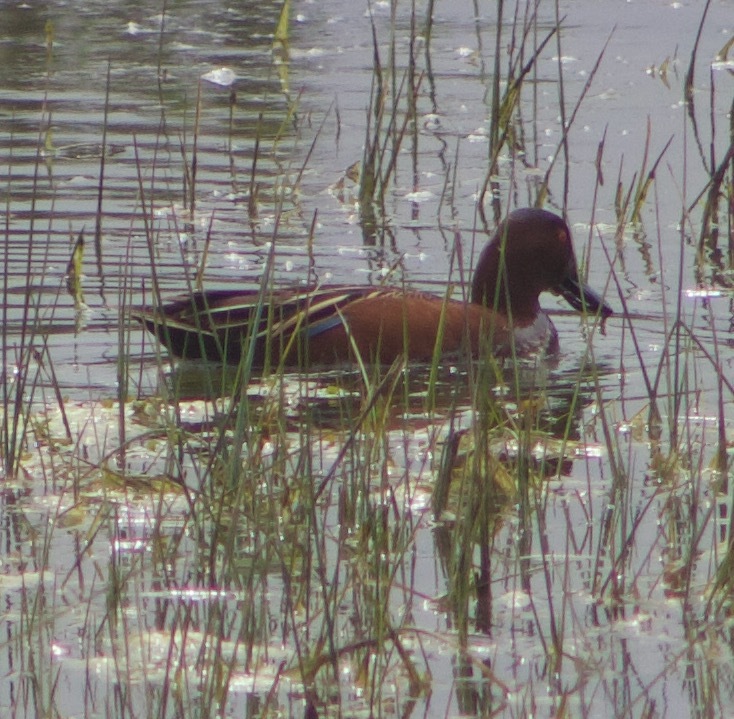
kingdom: Animalia
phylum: Chordata
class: Aves
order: Anseriformes
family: Anatidae
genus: Spatula
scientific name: Spatula cyanoptera
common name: Cinnamon teal
